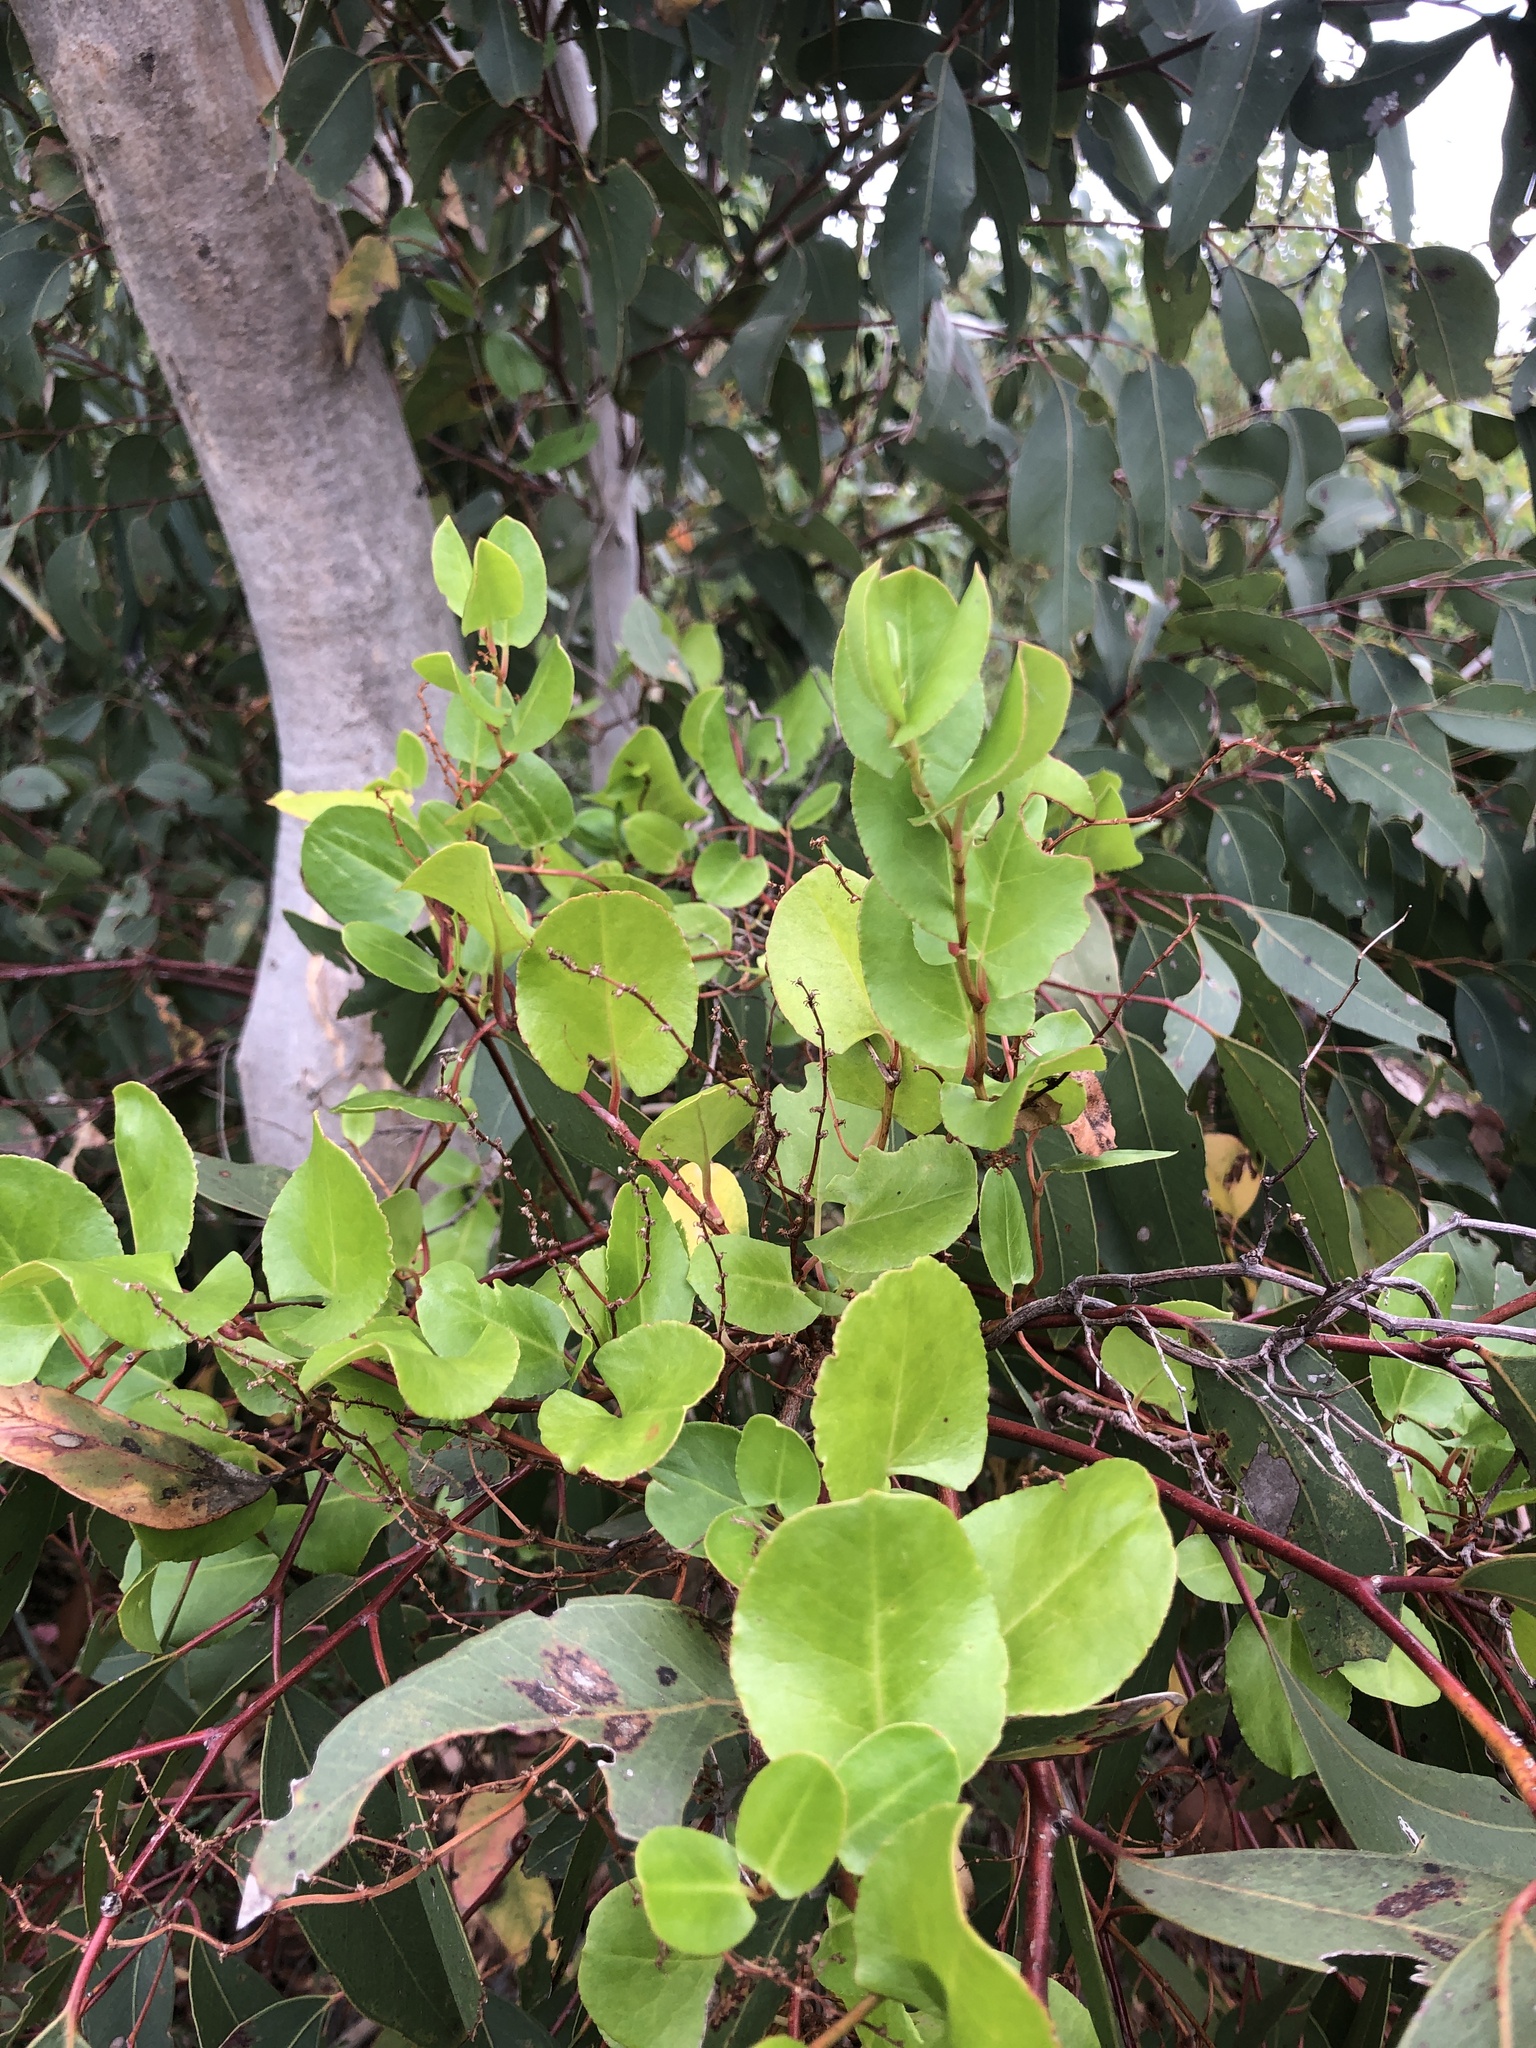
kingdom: Plantae
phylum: Tracheophyta
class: Magnoliopsida
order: Caryophyllales
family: Polygonaceae
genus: Muehlenbeckia
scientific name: Muehlenbeckia adpressa
